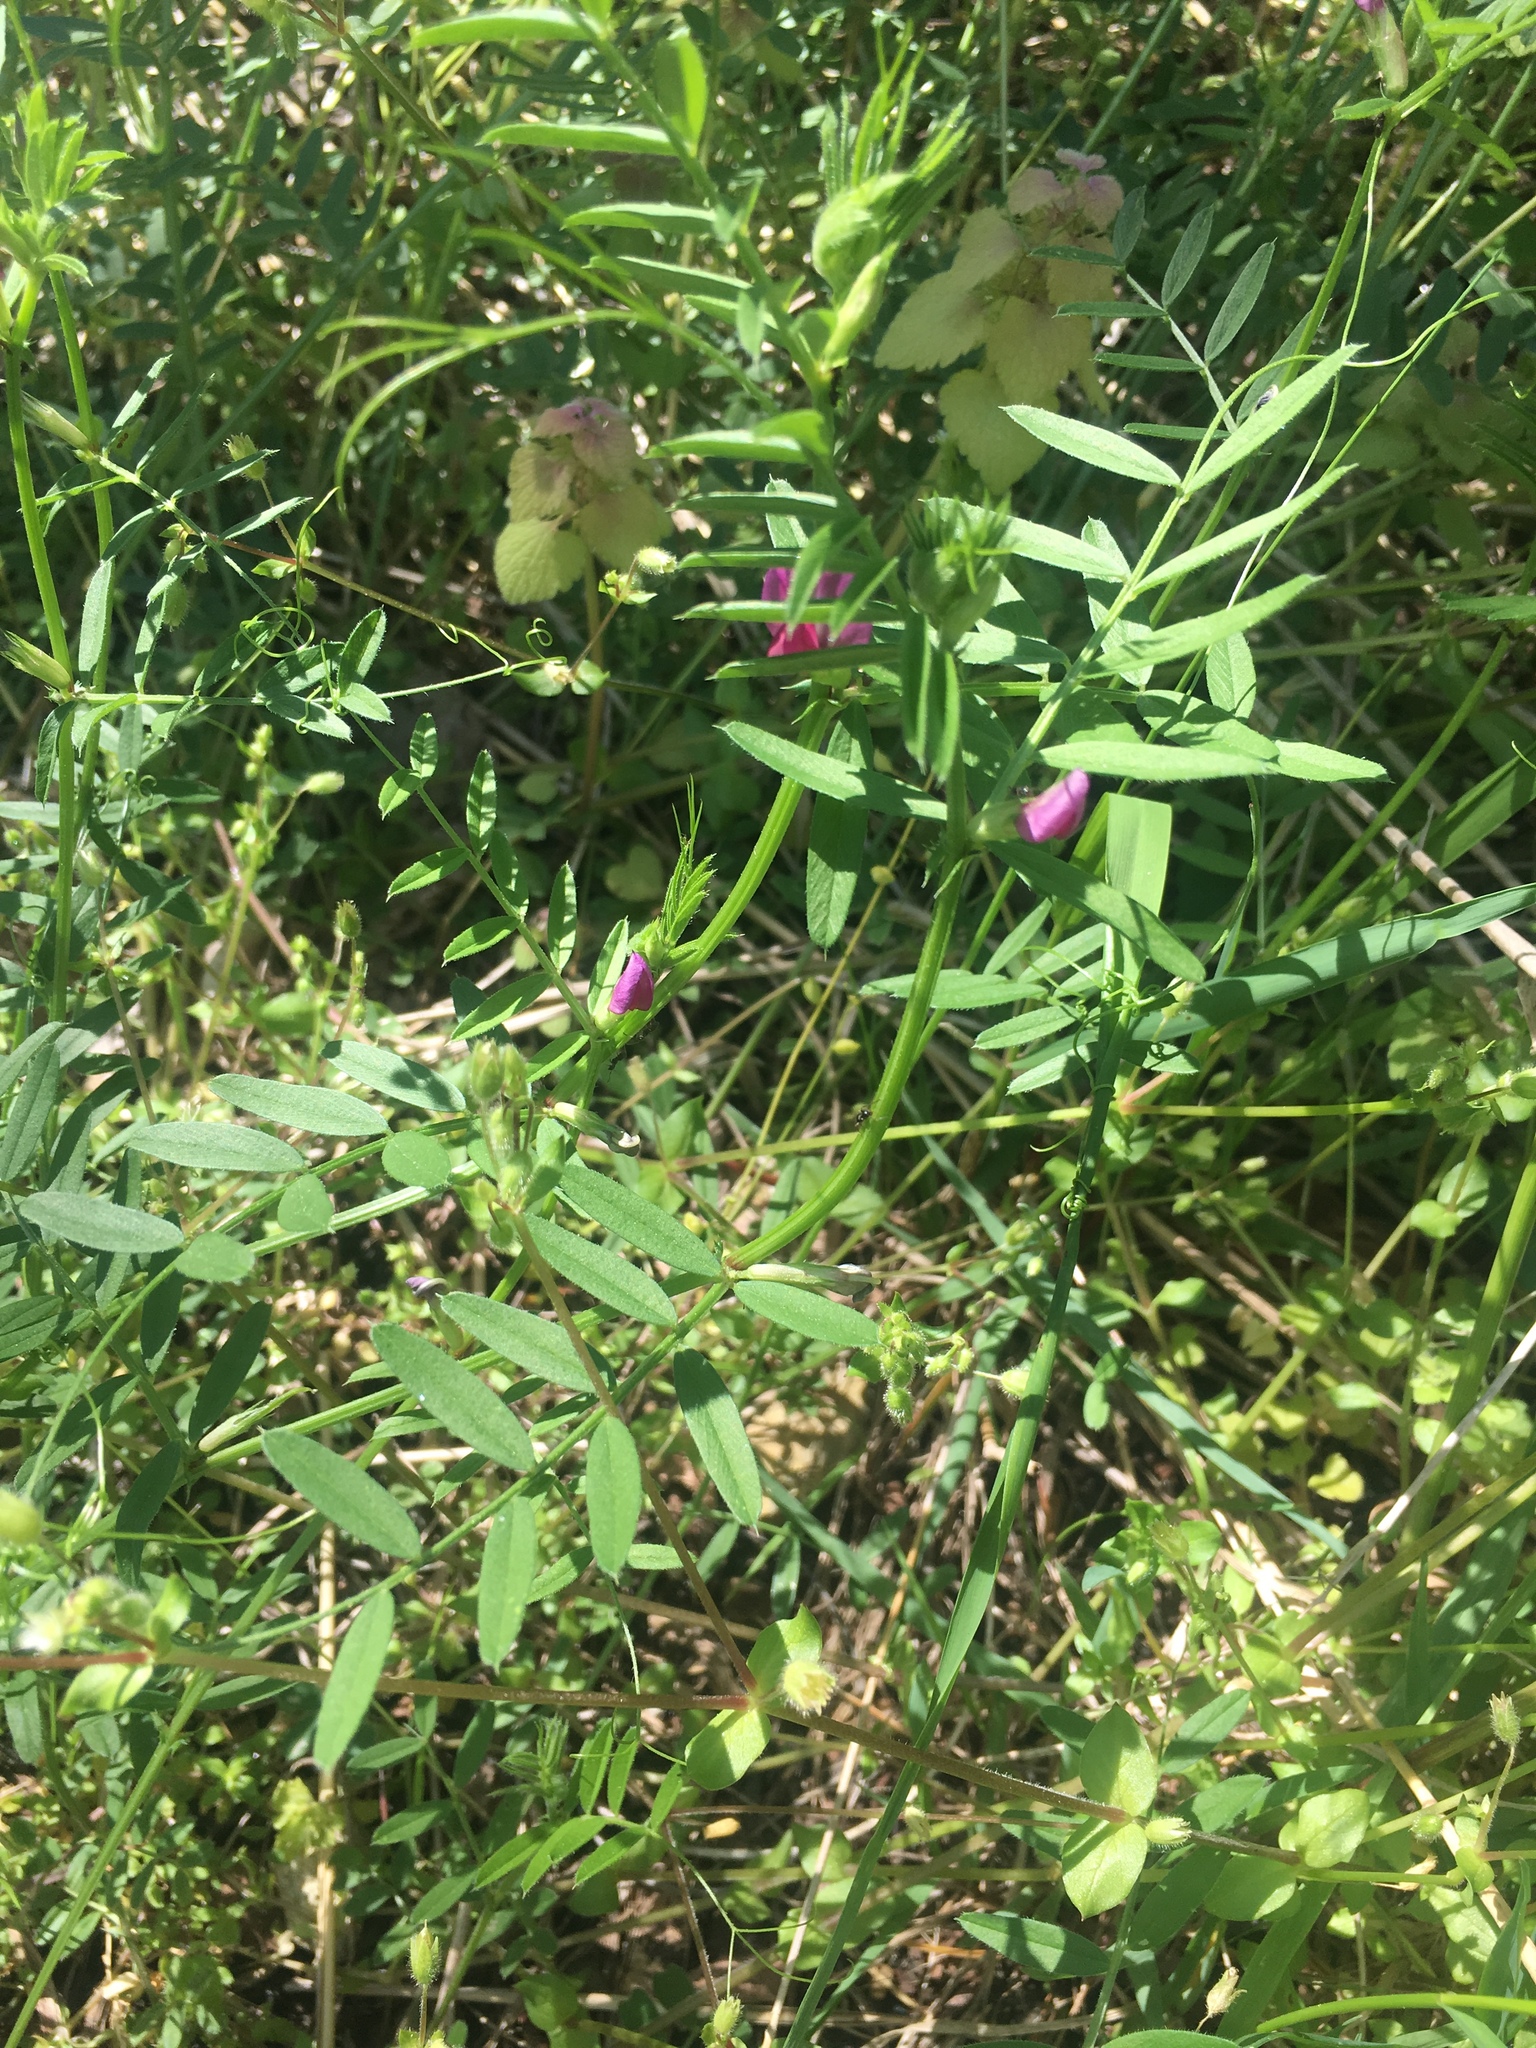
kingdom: Plantae
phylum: Tracheophyta
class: Magnoliopsida
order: Fabales
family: Fabaceae
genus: Vicia
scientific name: Vicia sativa
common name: Garden vetch
